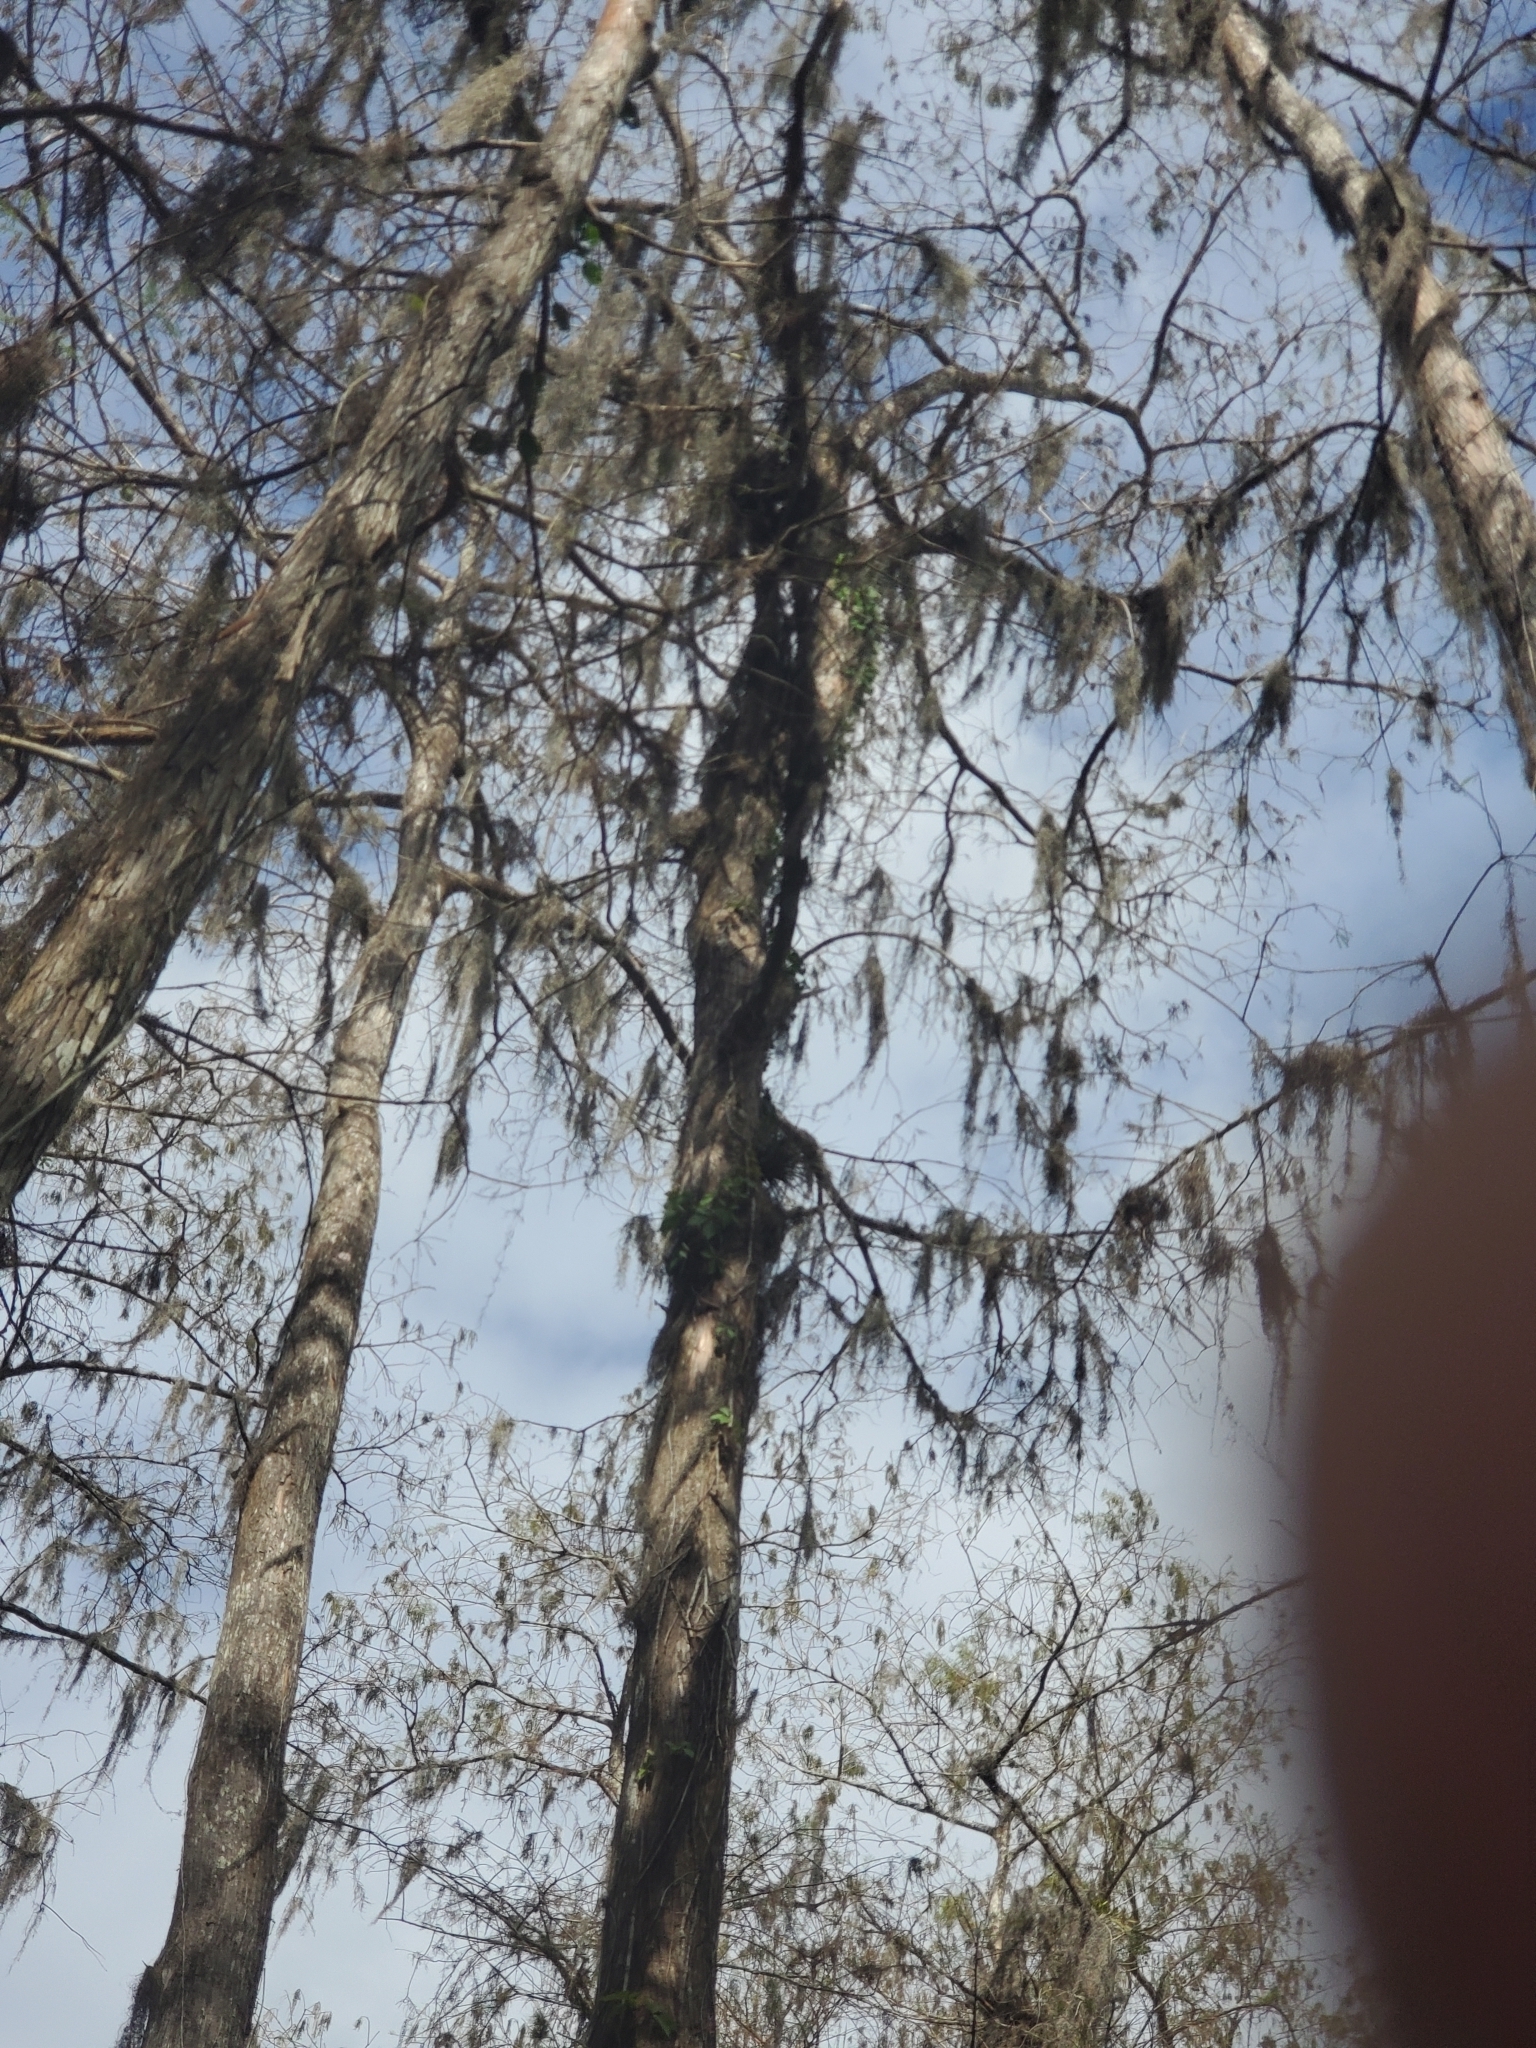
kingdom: Plantae
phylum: Tracheophyta
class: Liliopsida
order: Poales
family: Bromeliaceae
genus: Tillandsia
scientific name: Tillandsia usneoides
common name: Spanish moss
